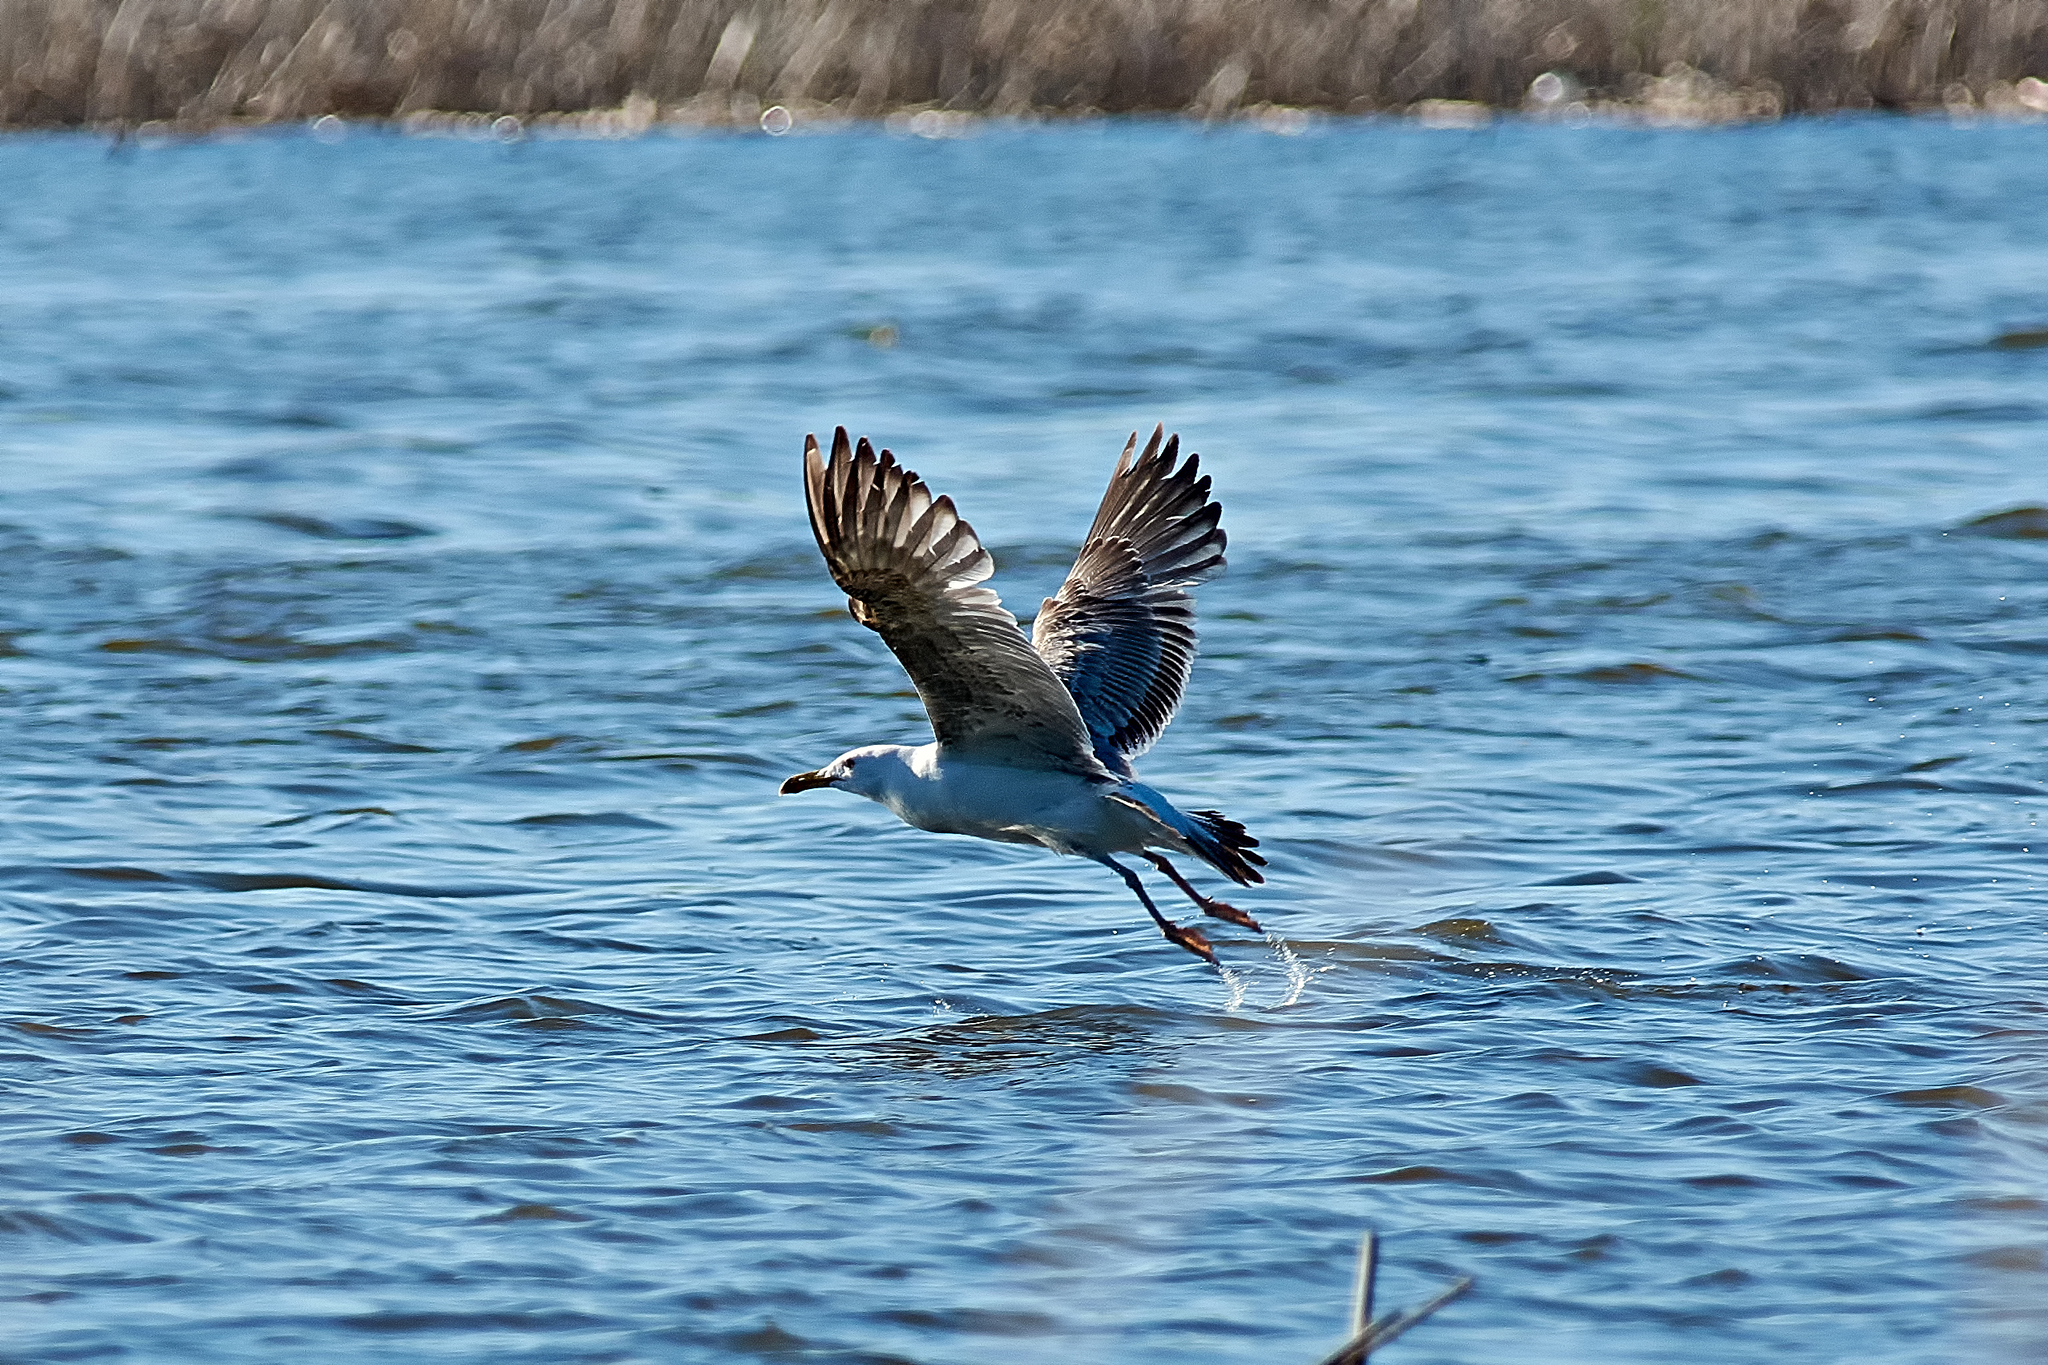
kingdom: Animalia
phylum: Chordata
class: Aves
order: Charadriiformes
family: Laridae
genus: Larus
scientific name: Larus cachinnans
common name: Caspian gull
